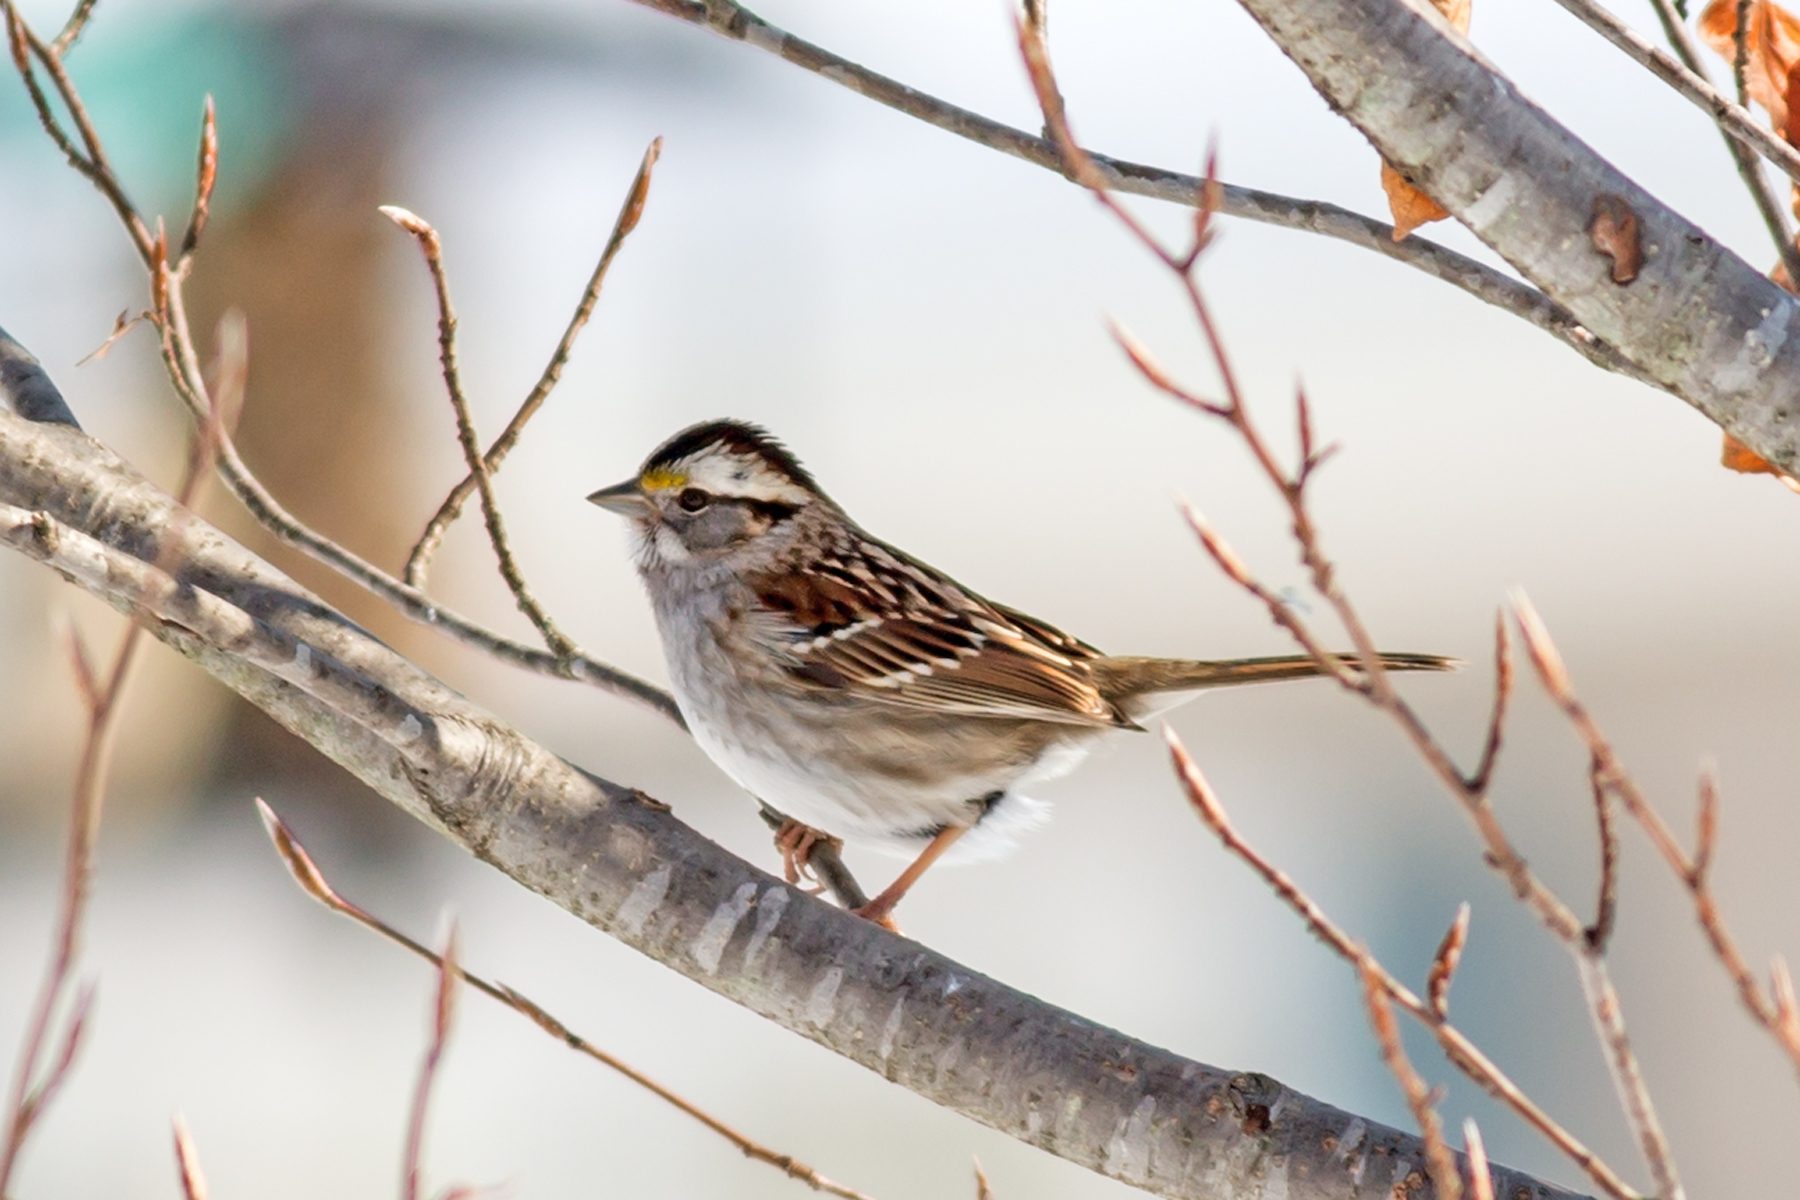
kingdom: Animalia
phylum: Chordata
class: Aves
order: Passeriformes
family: Passerellidae
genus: Zonotrichia
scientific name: Zonotrichia albicollis
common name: White-throated sparrow
